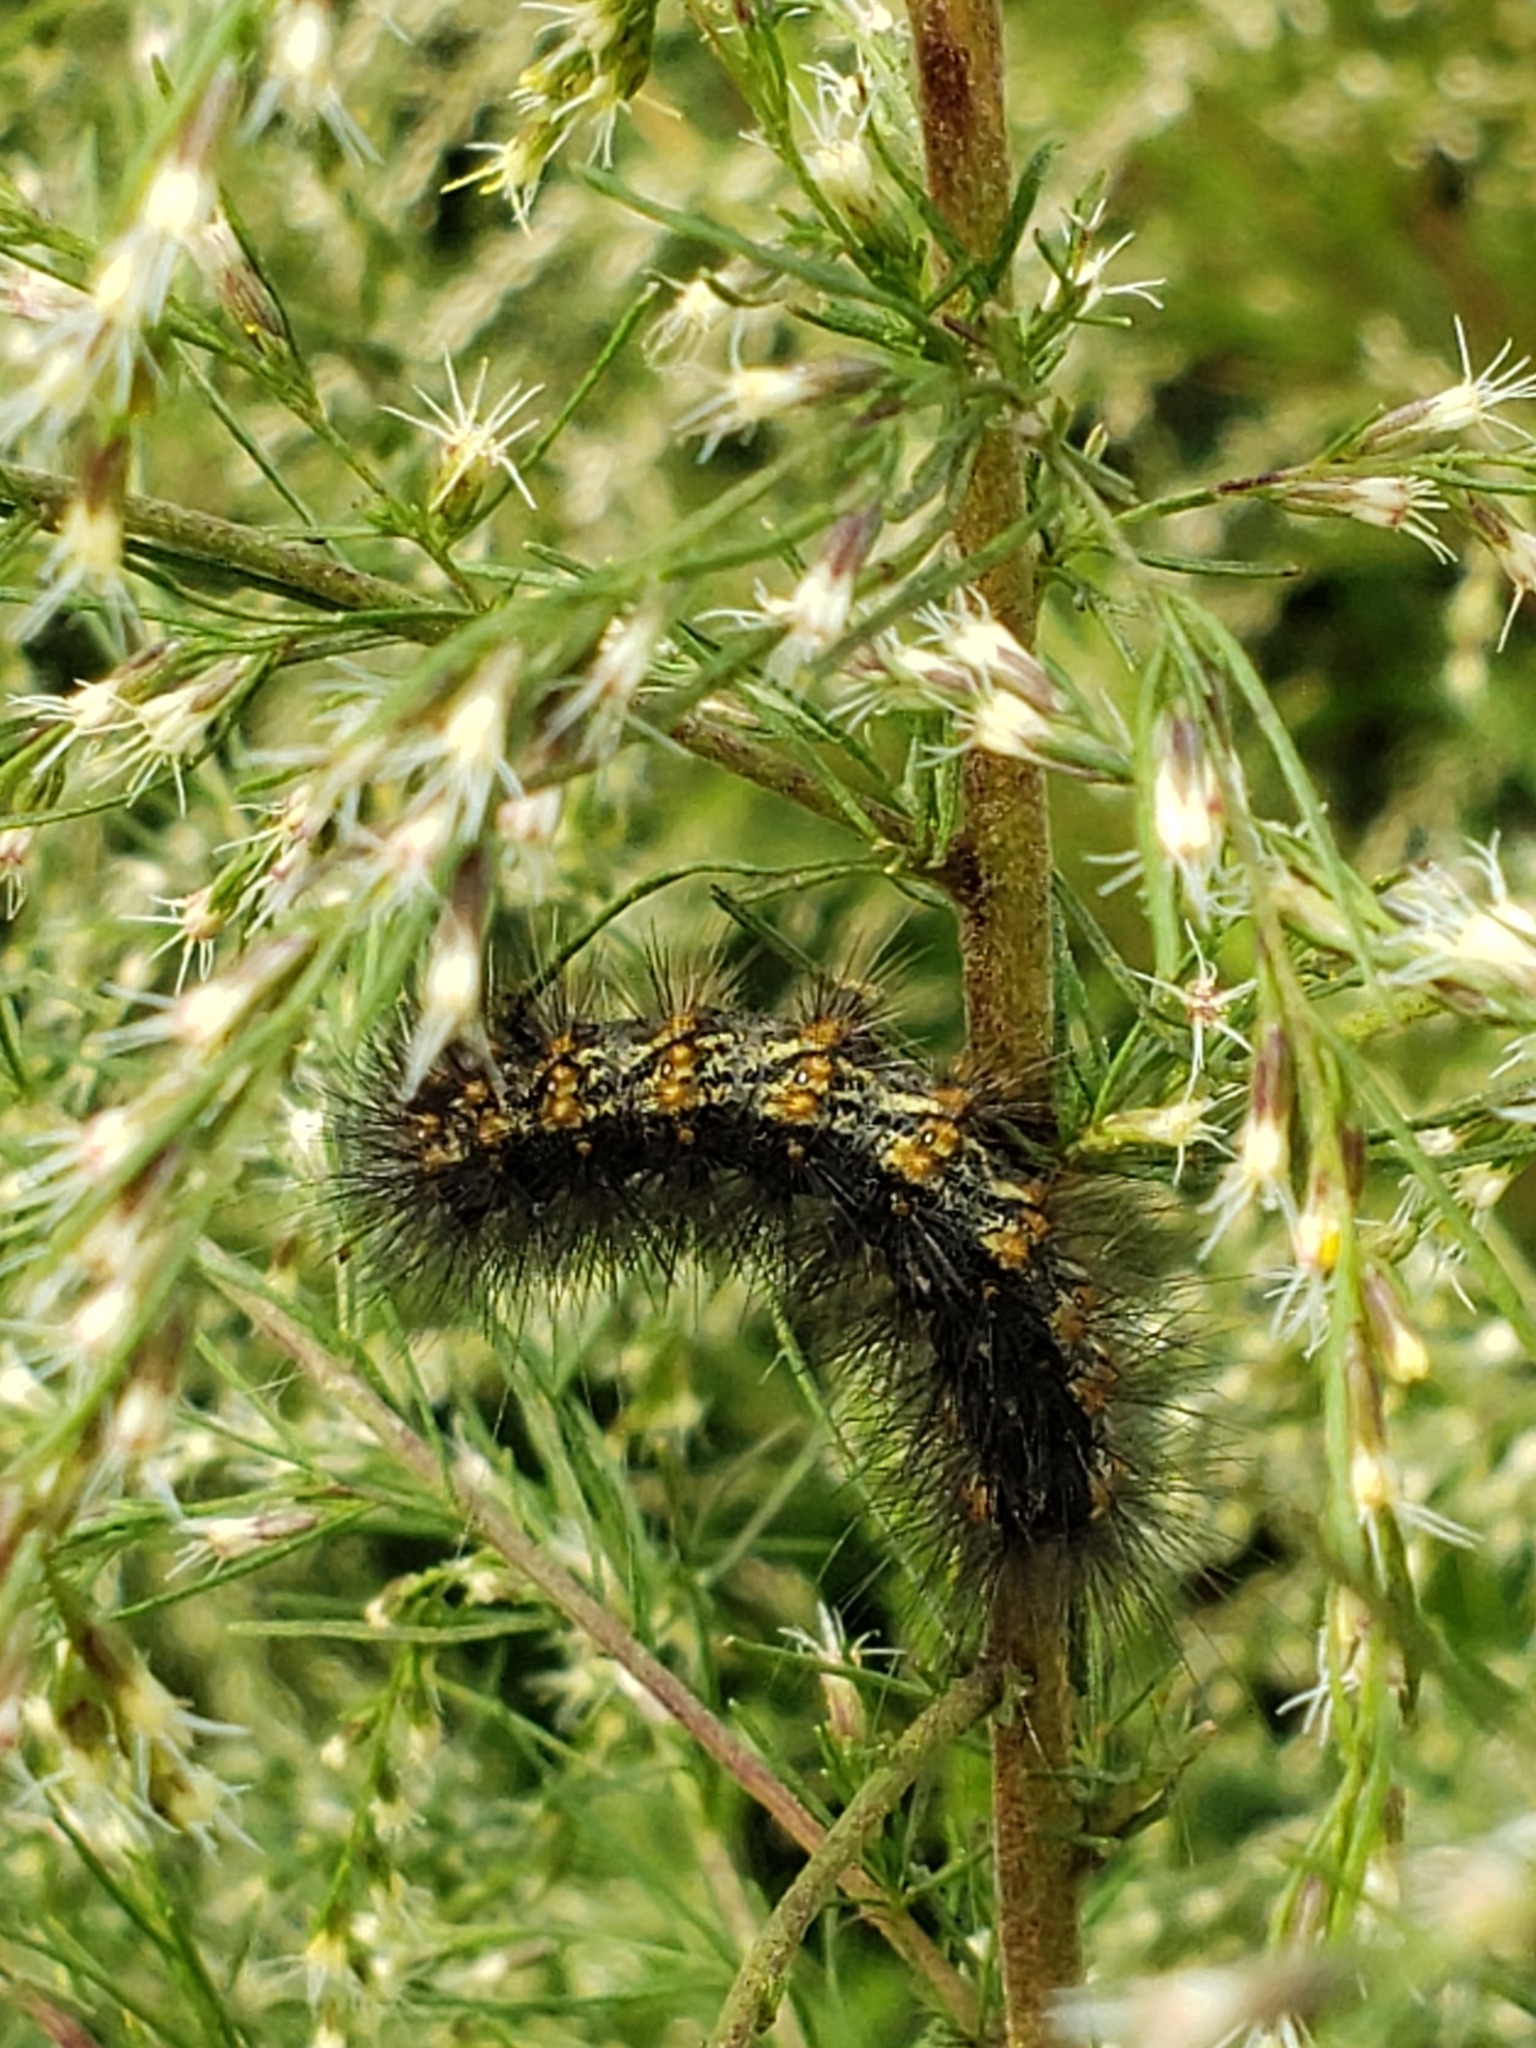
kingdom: Animalia
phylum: Arthropoda
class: Insecta
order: Lepidoptera
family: Erebidae
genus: Estigmene
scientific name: Estigmene acrea
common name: Salt marsh moth
